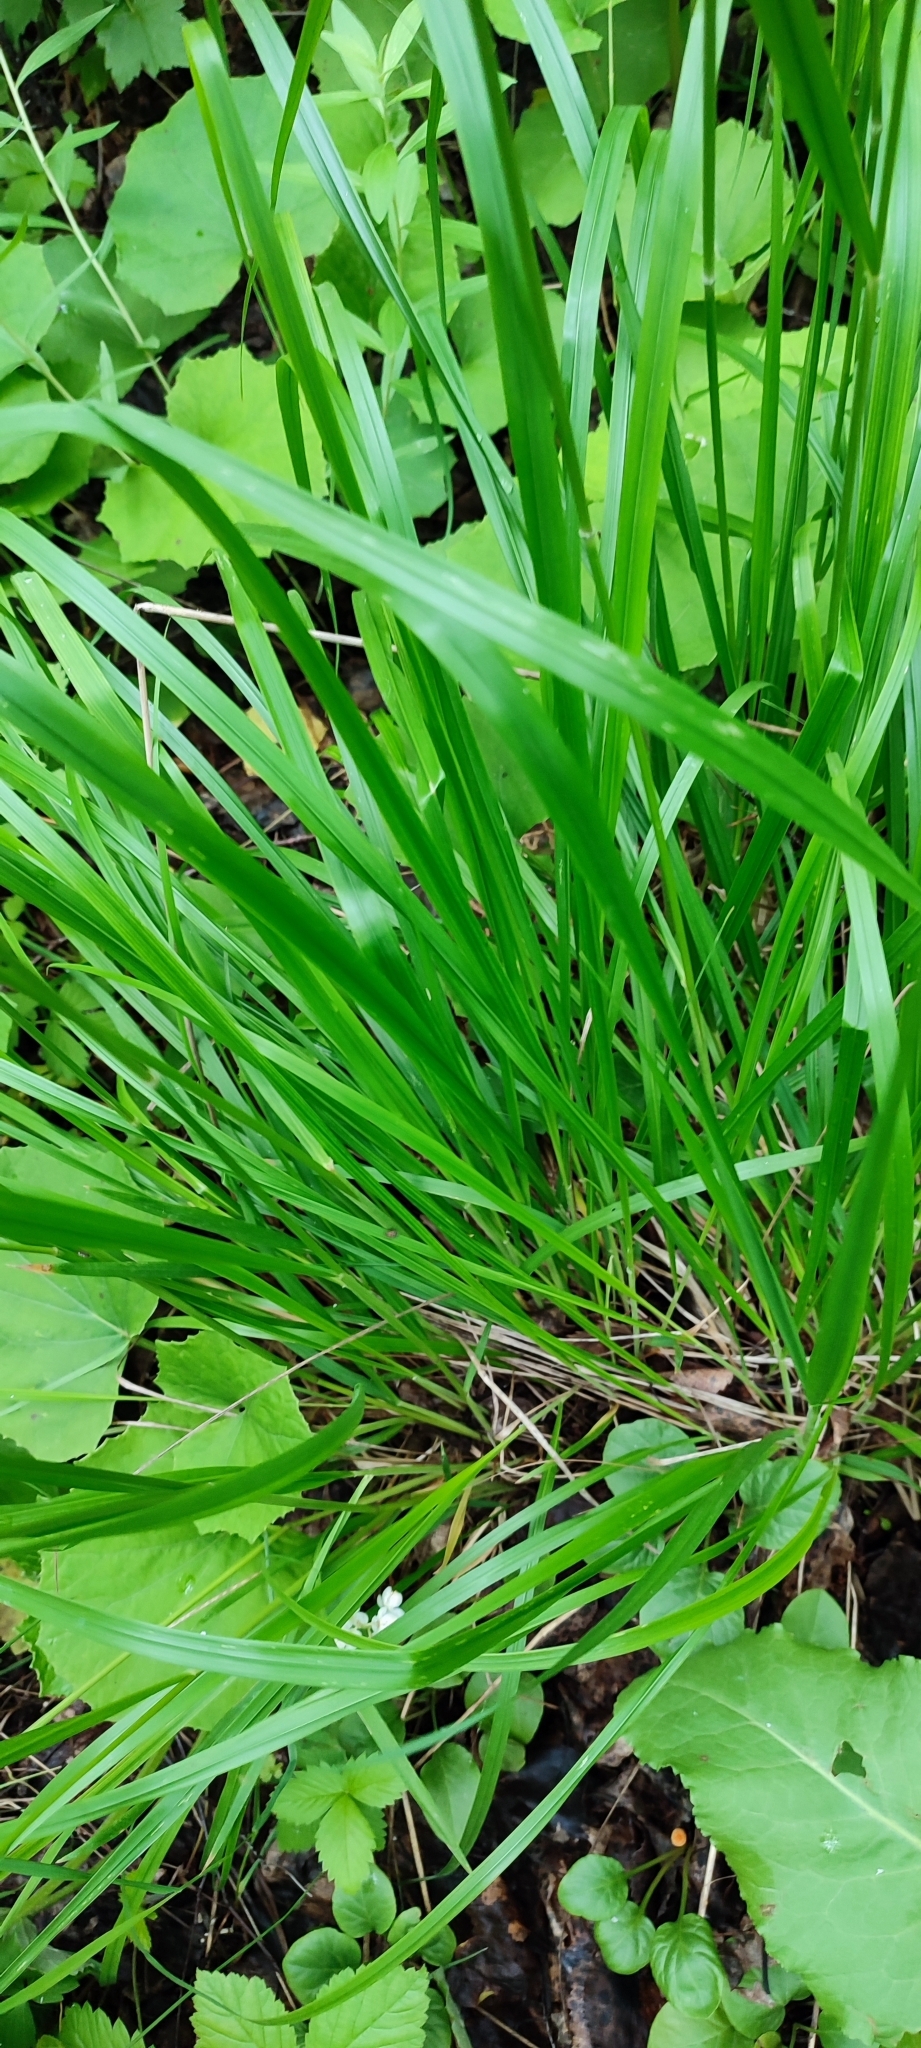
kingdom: Plantae
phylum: Tracheophyta
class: Liliopsida
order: Poales
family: Poaceae
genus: Calamagrostis
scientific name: Calamagrostis arundinacea
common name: Metskastik
